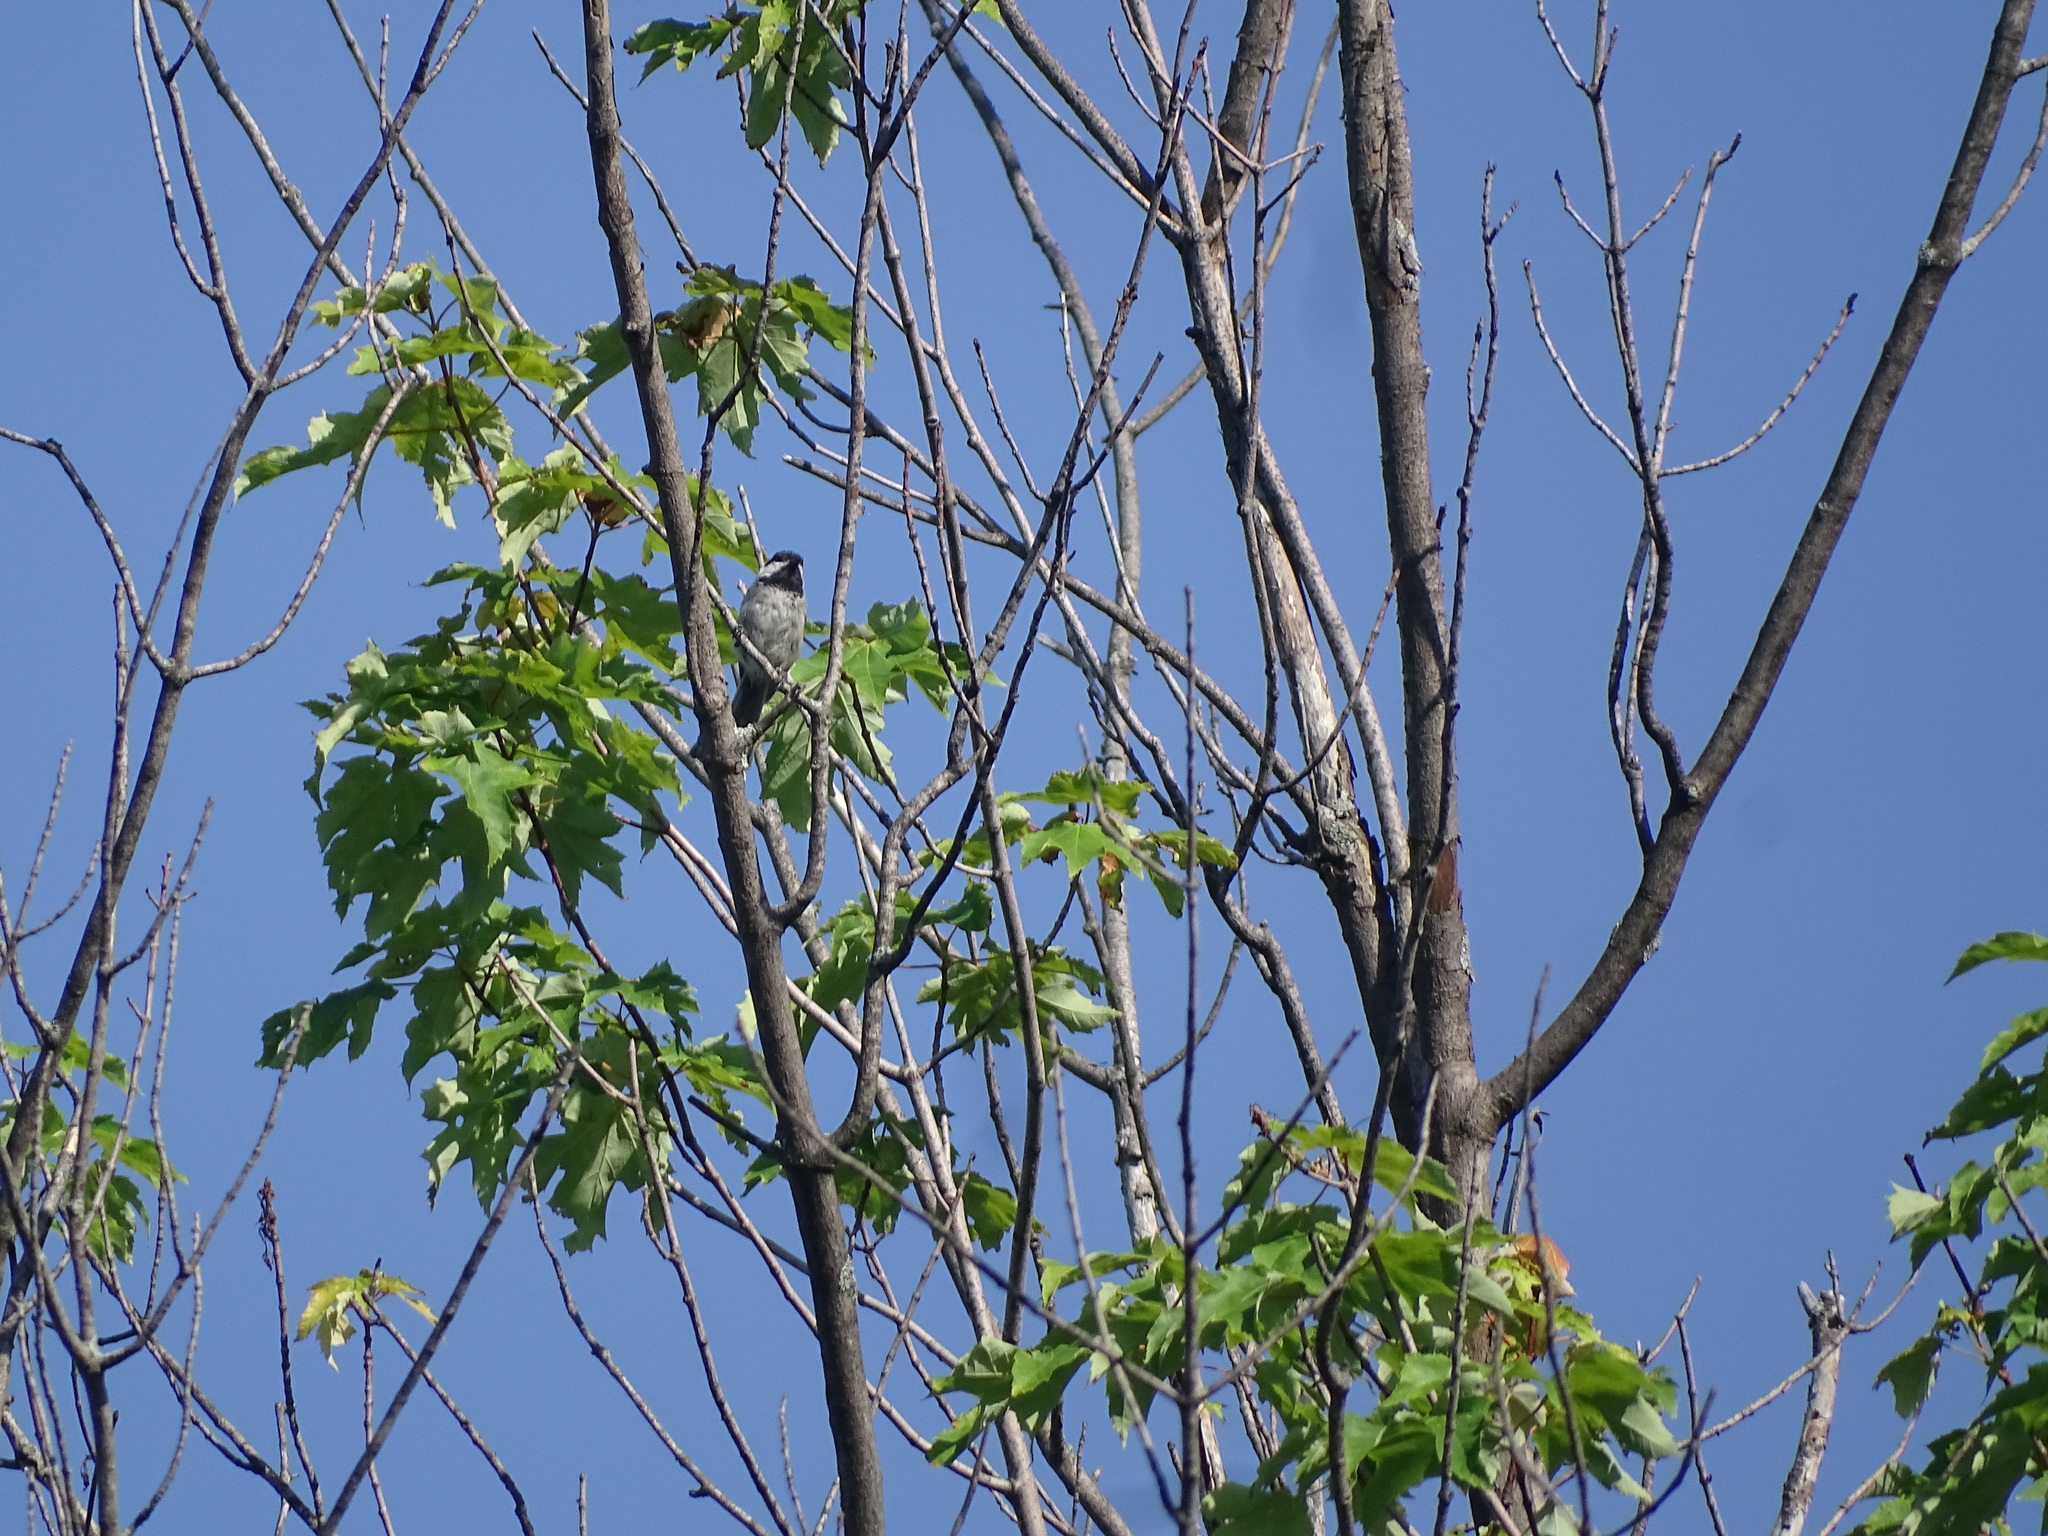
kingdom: Animalia
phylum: Chordata
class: Aves
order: Passeriformes
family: Paridae
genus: Poecile
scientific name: Poecile atricapillus
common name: Black-capped chickadee
